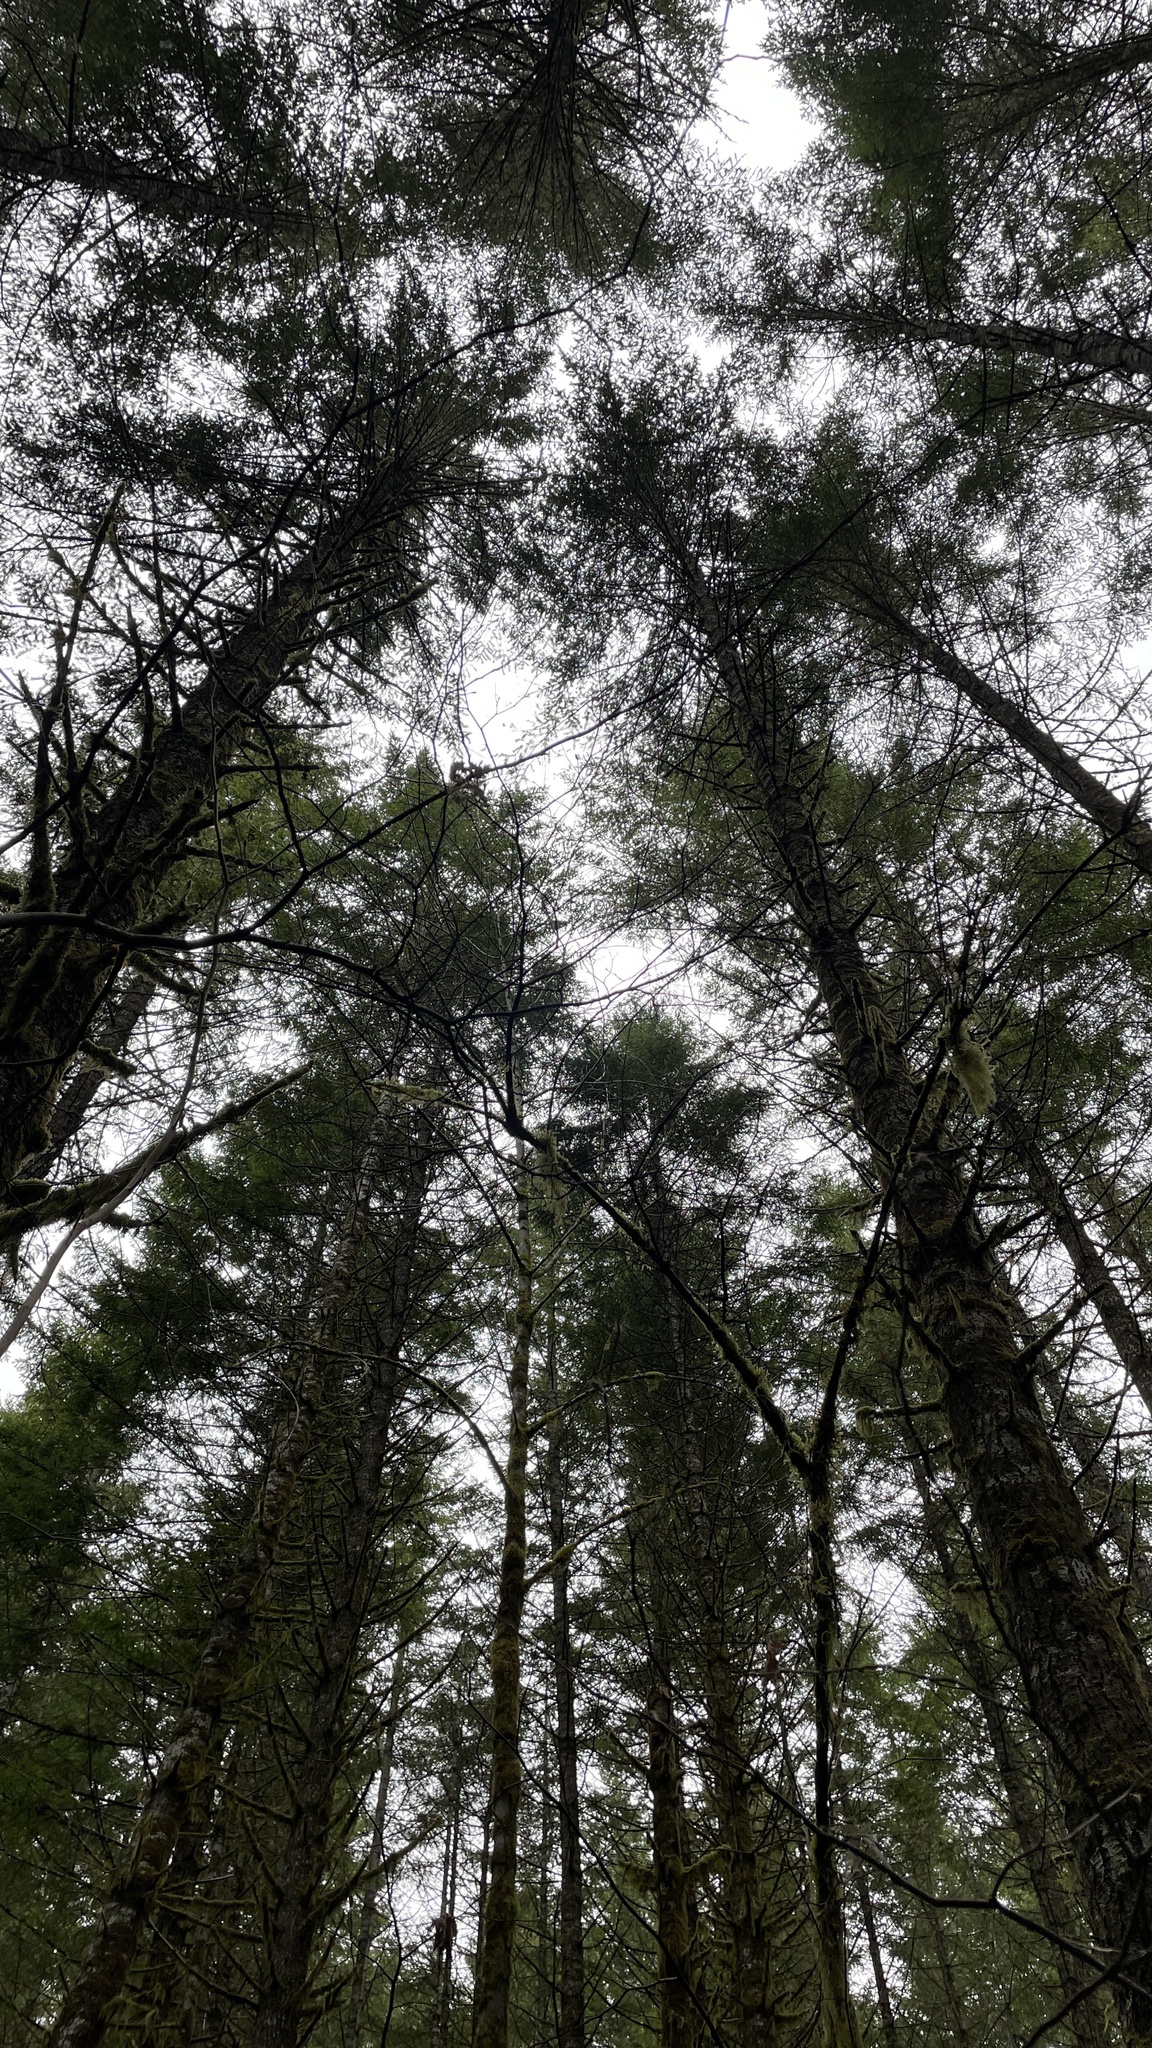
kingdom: Fungi
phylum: Ascomycota
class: Pezizomycetes
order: Pezizales
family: Tuberaceae
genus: Tuber
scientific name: Tuber oregonense
